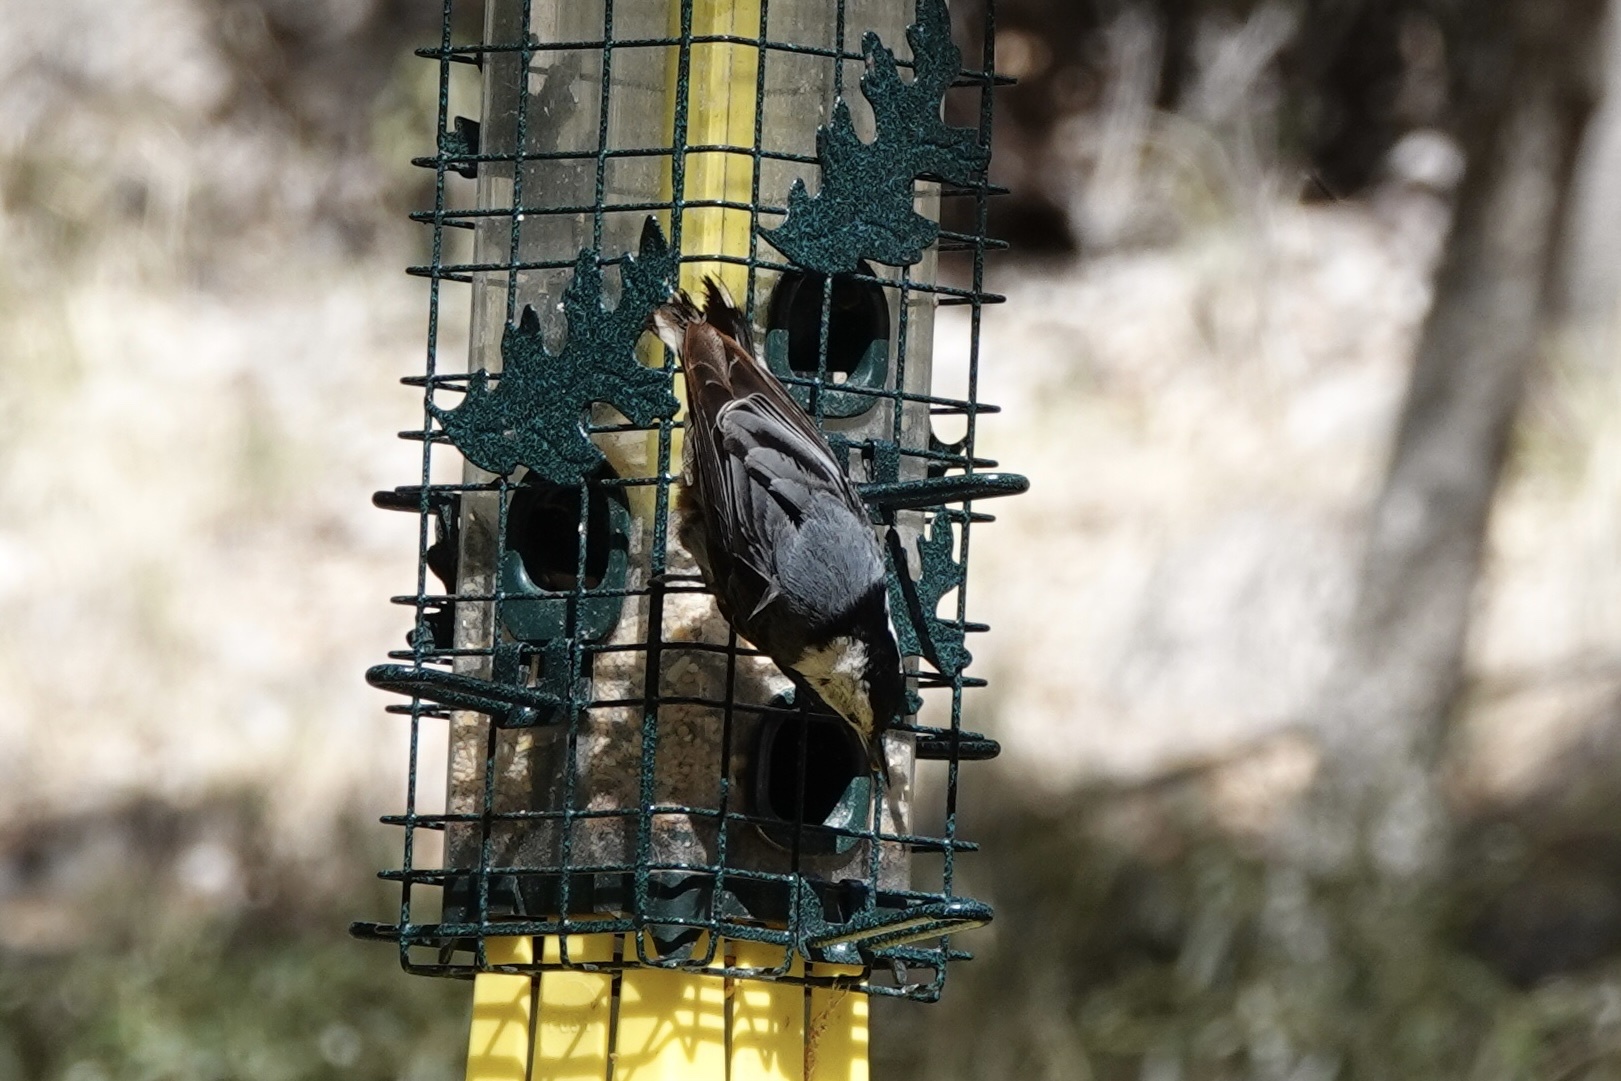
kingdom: Animalia
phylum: Chordata
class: Aves
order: Passeriformes
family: Sittidae
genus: Sitta
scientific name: Sitta carolinensis
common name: White-breasted nuthatch
